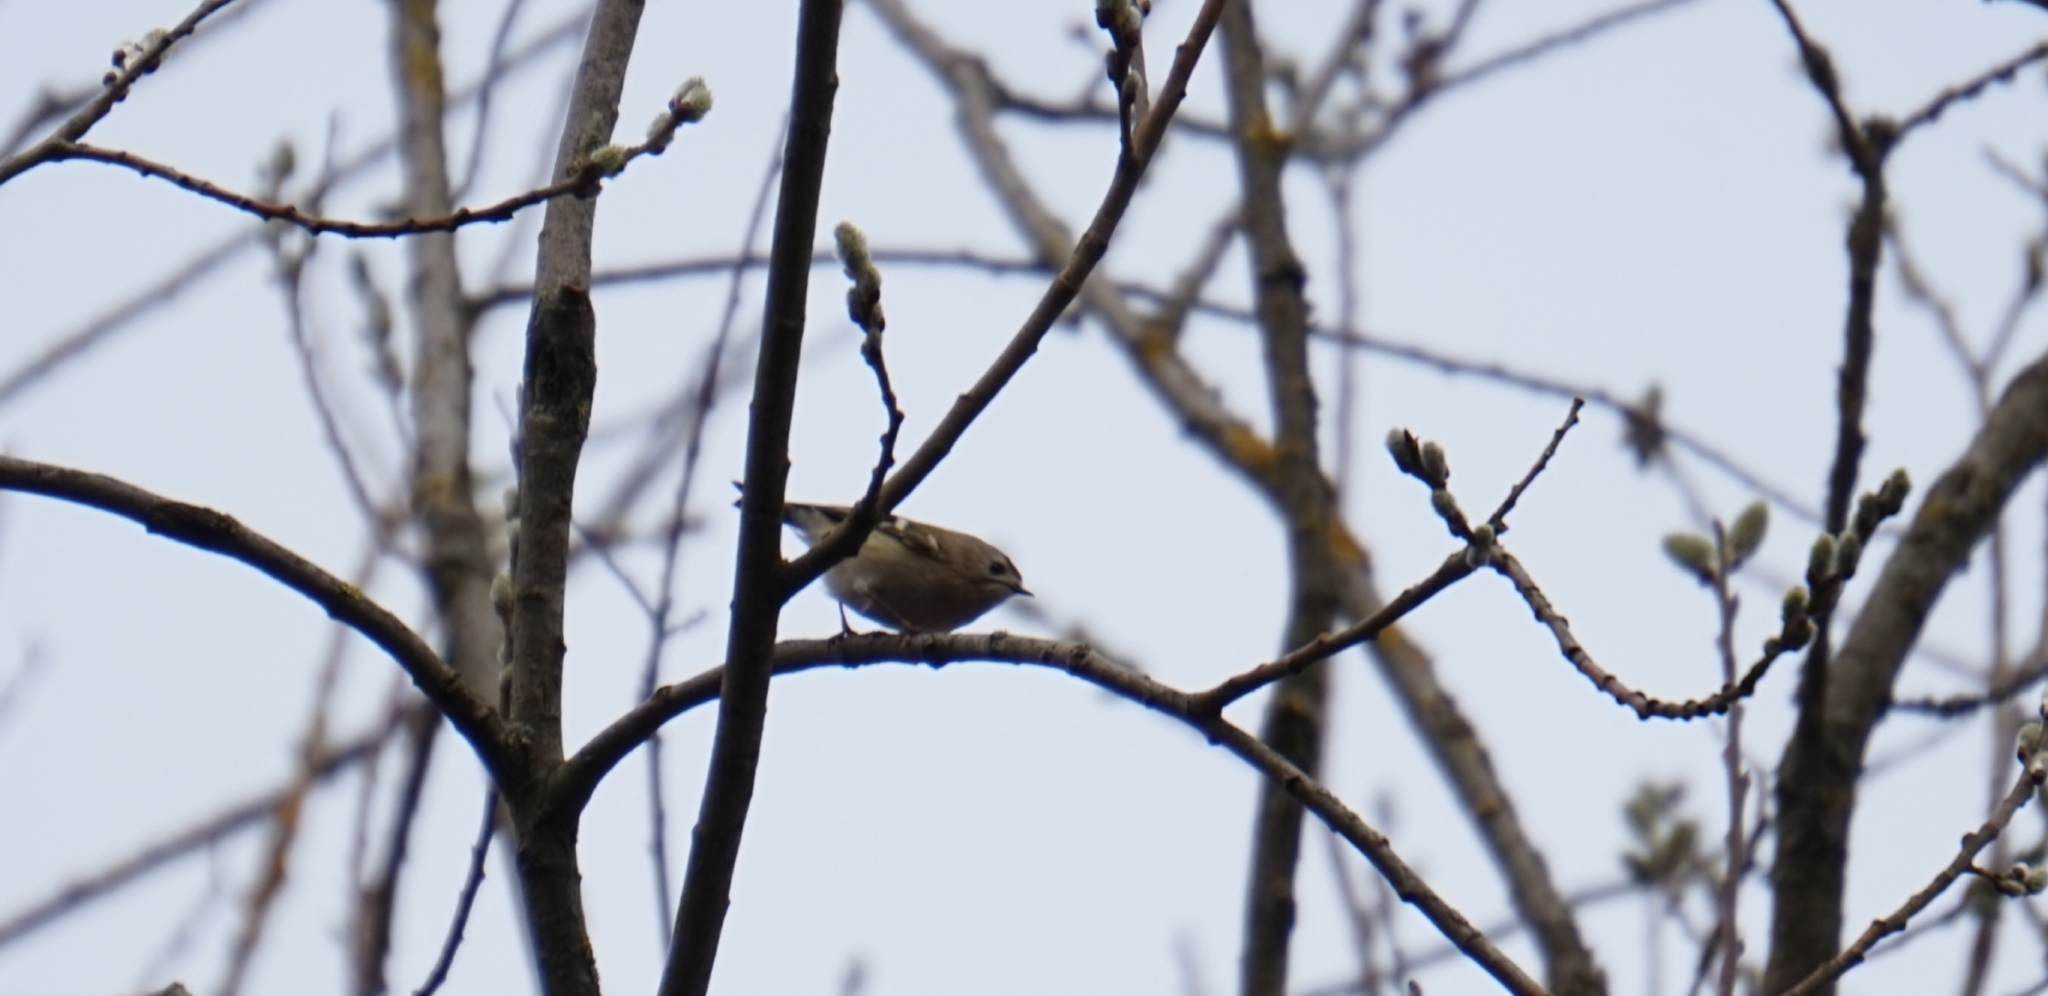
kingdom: Animalia
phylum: Chordata
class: Aves
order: Passeriformes
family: Regulidae
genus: Regulus
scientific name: Regulus regulus
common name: Goldcrest
